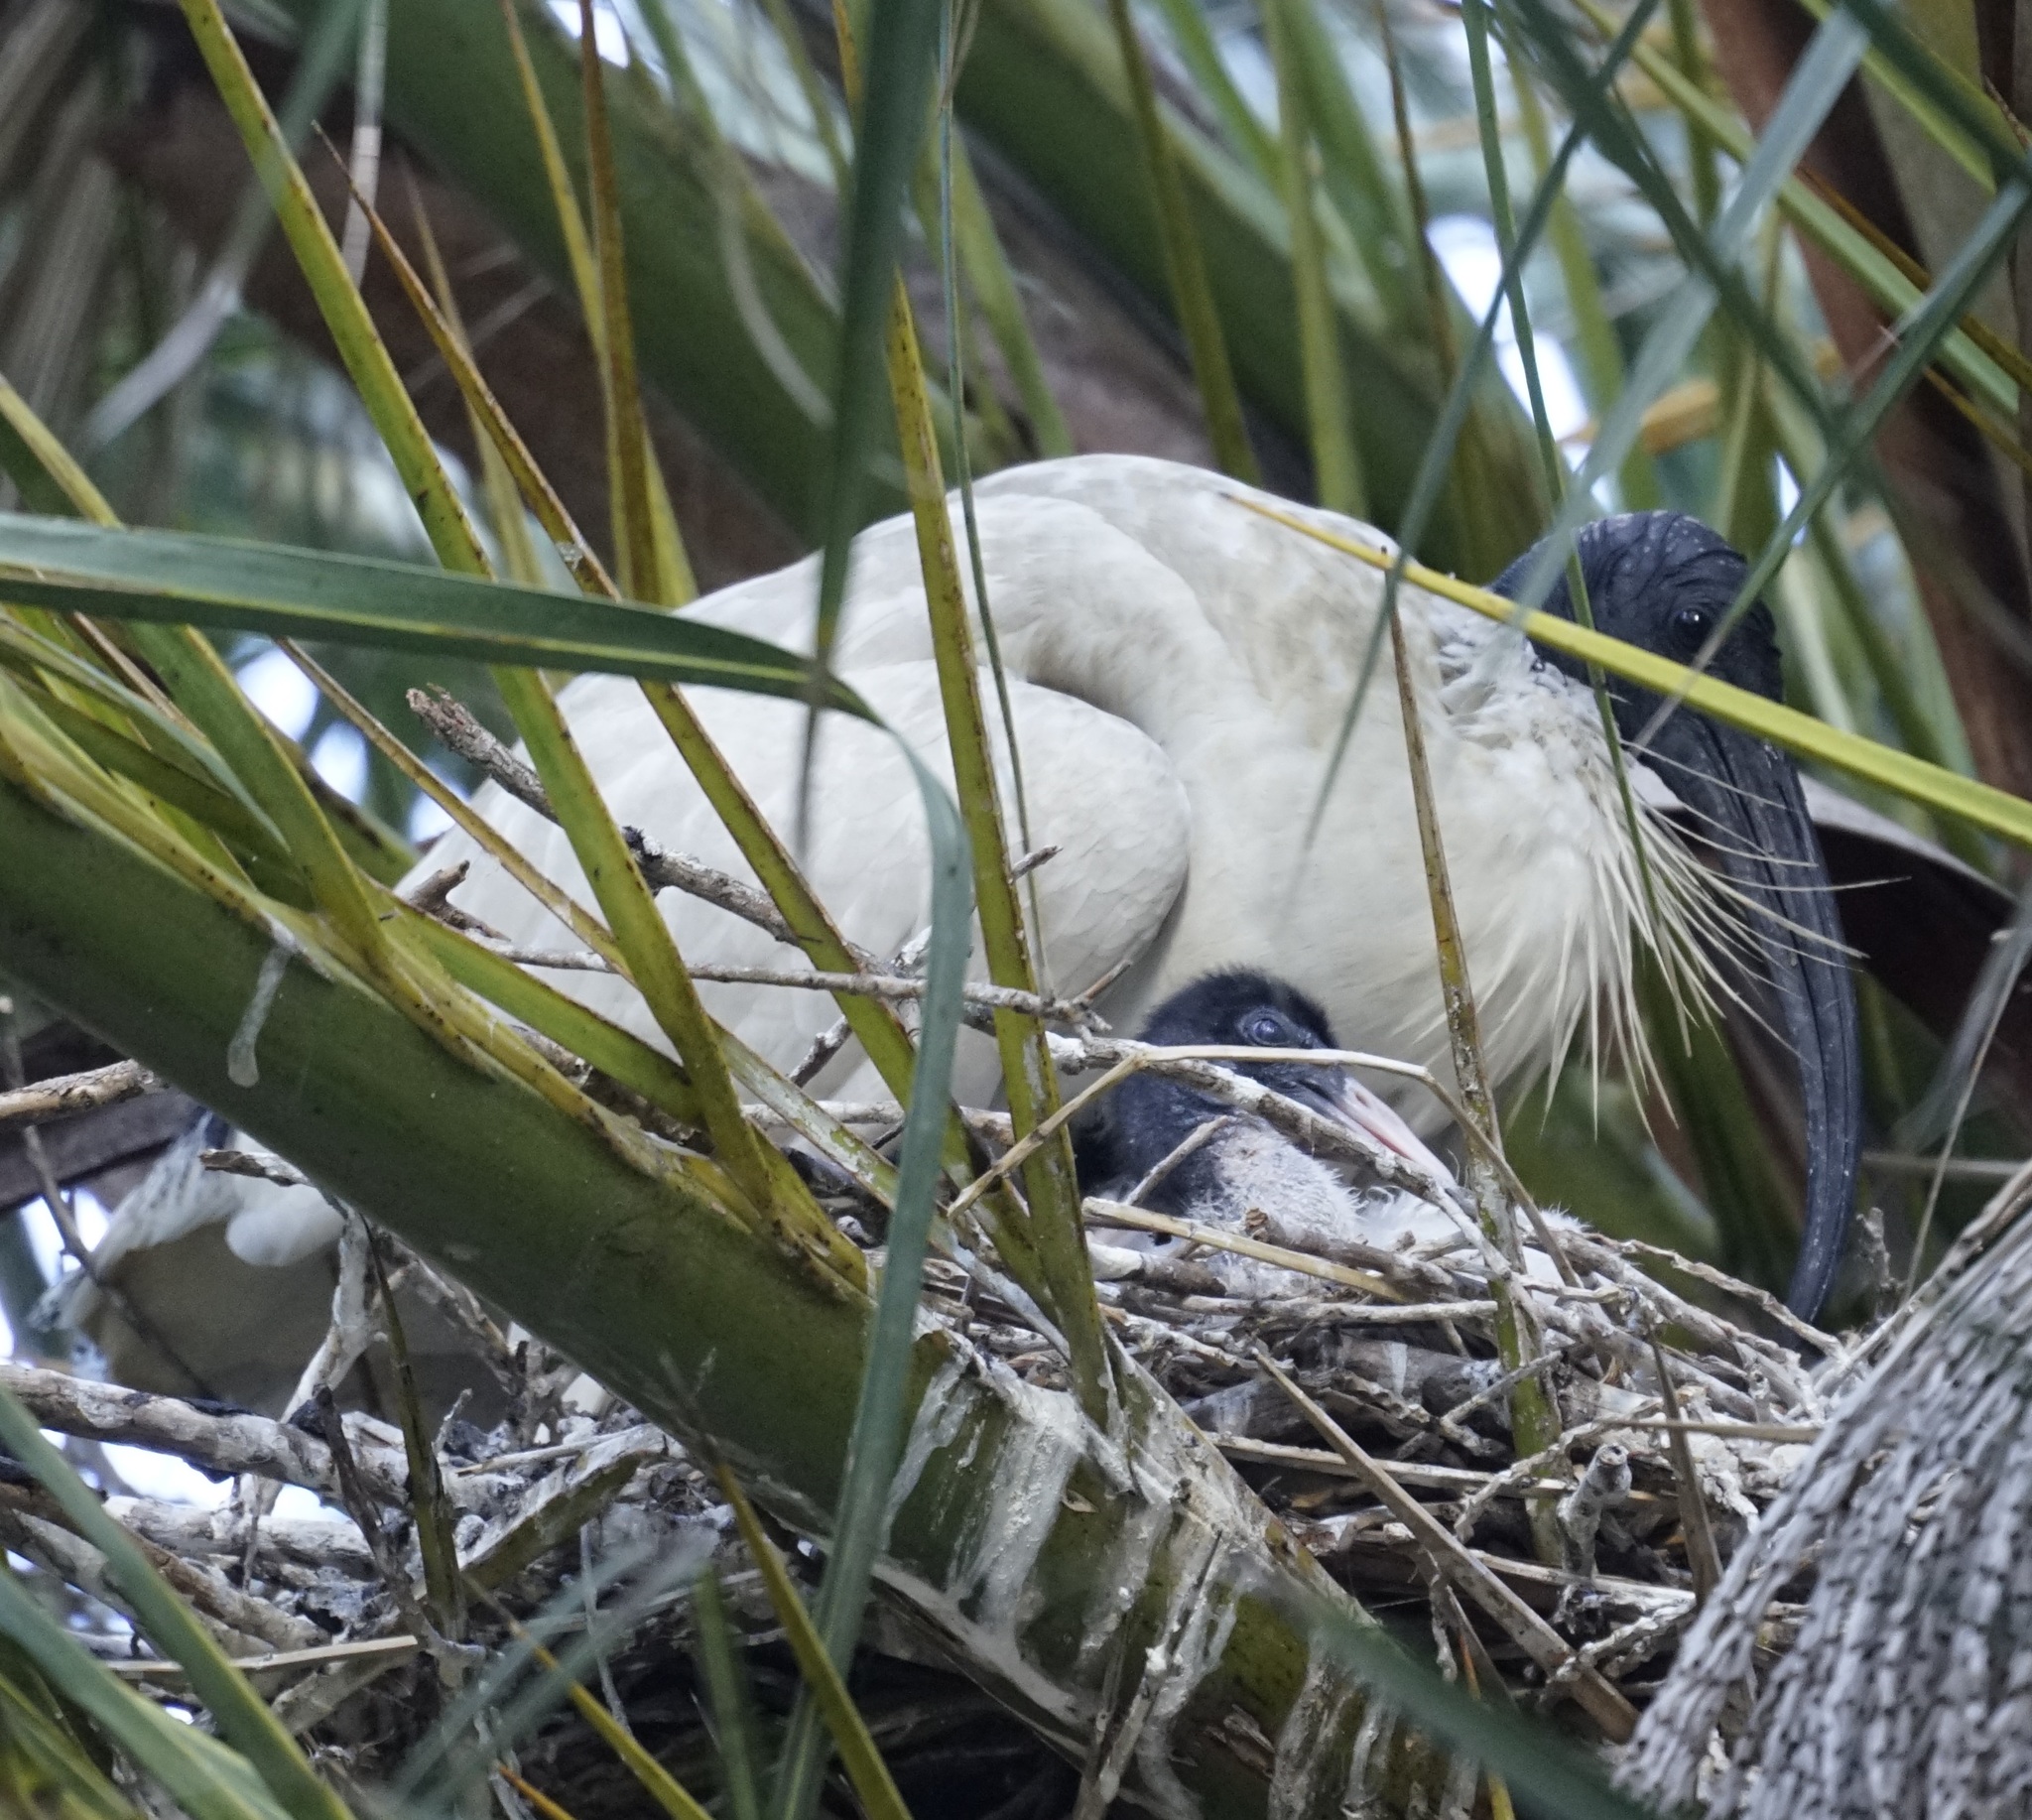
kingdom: Animalia
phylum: Chordata
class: Aves
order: Pelecaniformes
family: Threskiornithidae
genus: Threskiornis
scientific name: Threskiornis molucca
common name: Australian white ibis
